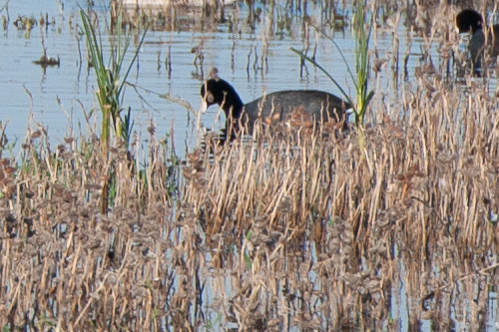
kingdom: Animalia
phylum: Chordata
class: Aves
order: Gruiformes
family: Rallidae
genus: Fulica
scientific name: Fulica americana
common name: American coot
